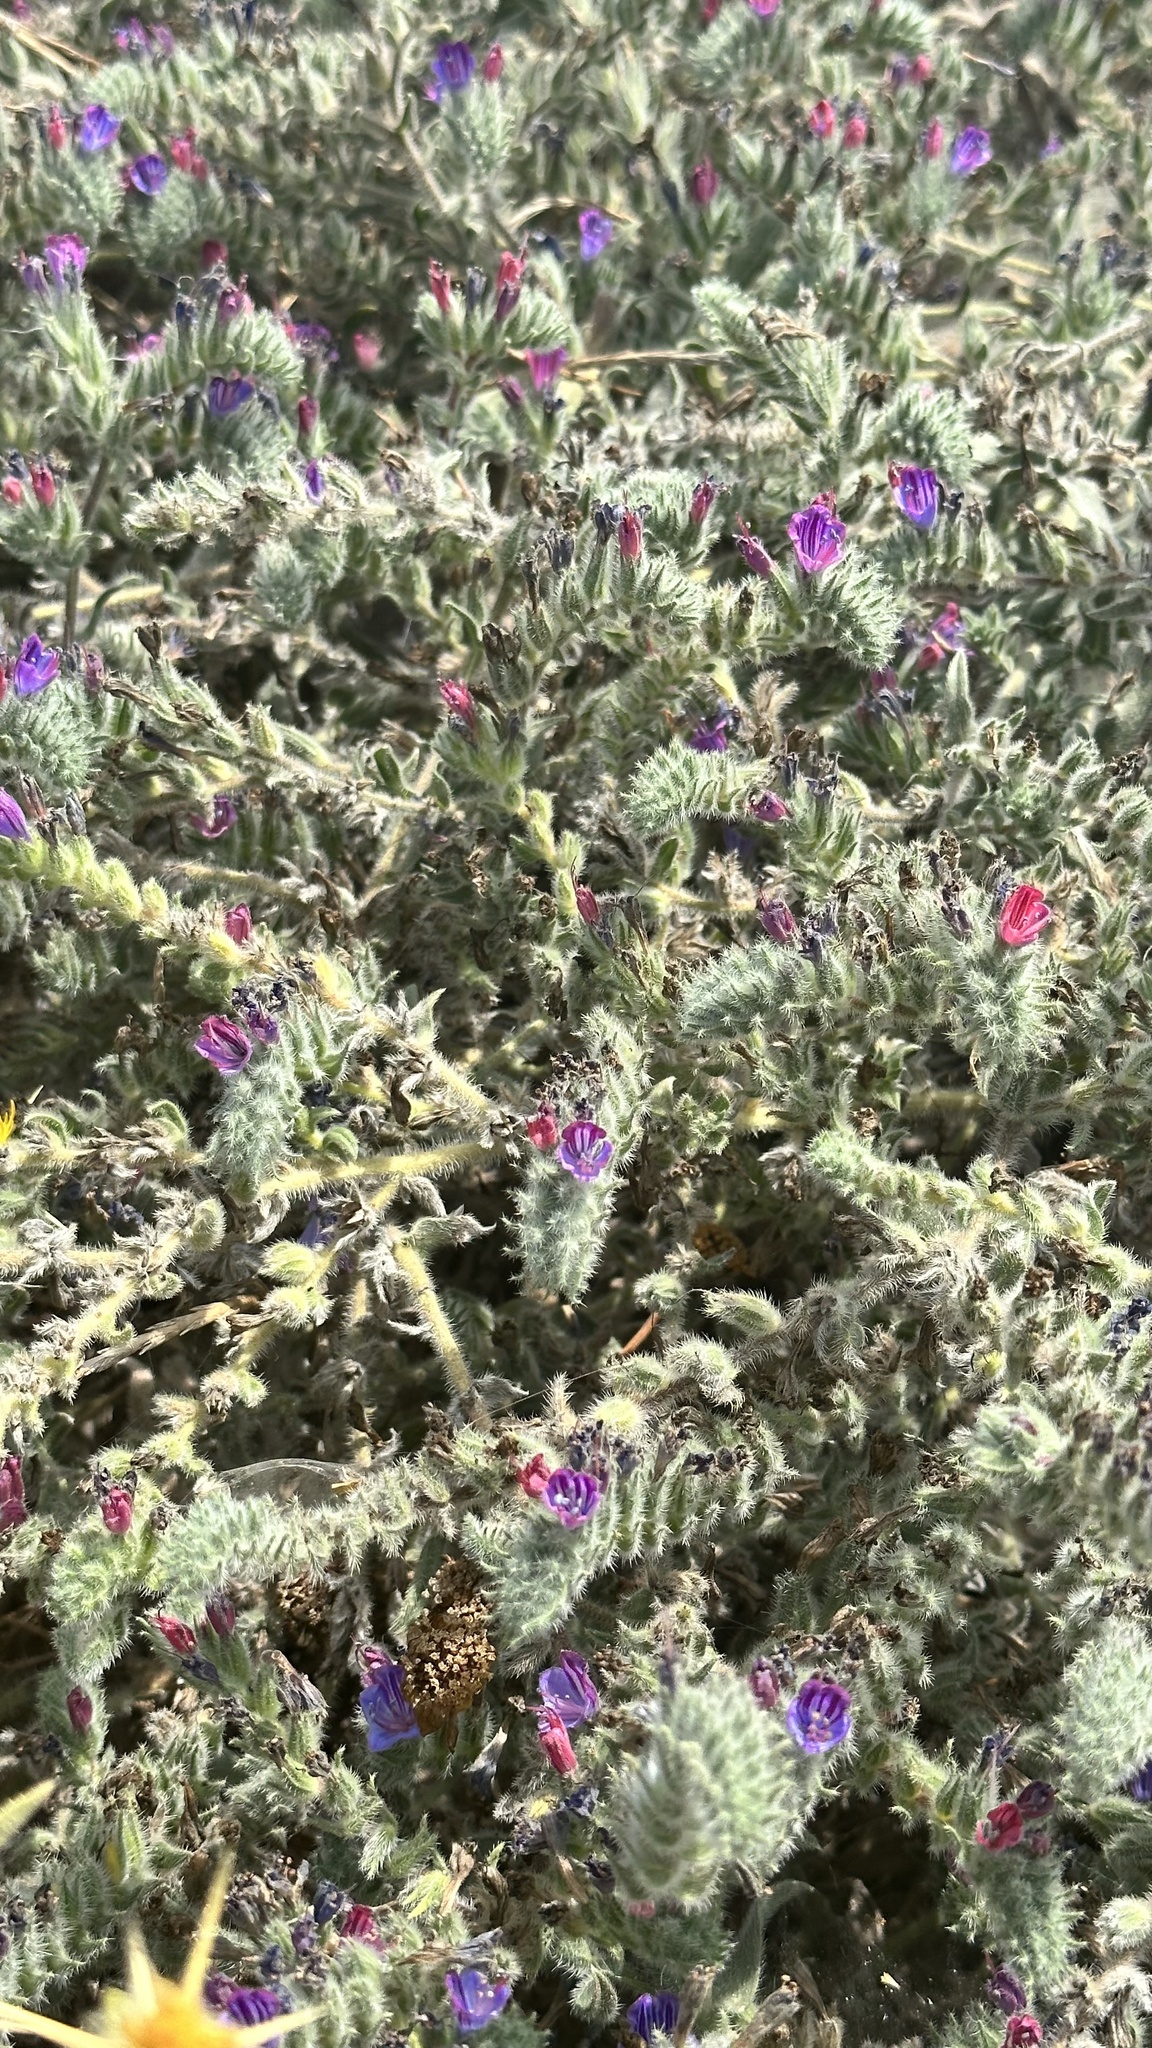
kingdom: Plantae
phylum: Tracheophyta
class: Magnoliopsida
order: Boraginales
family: Boraginaceae
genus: Echium
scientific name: Echium judaeum
